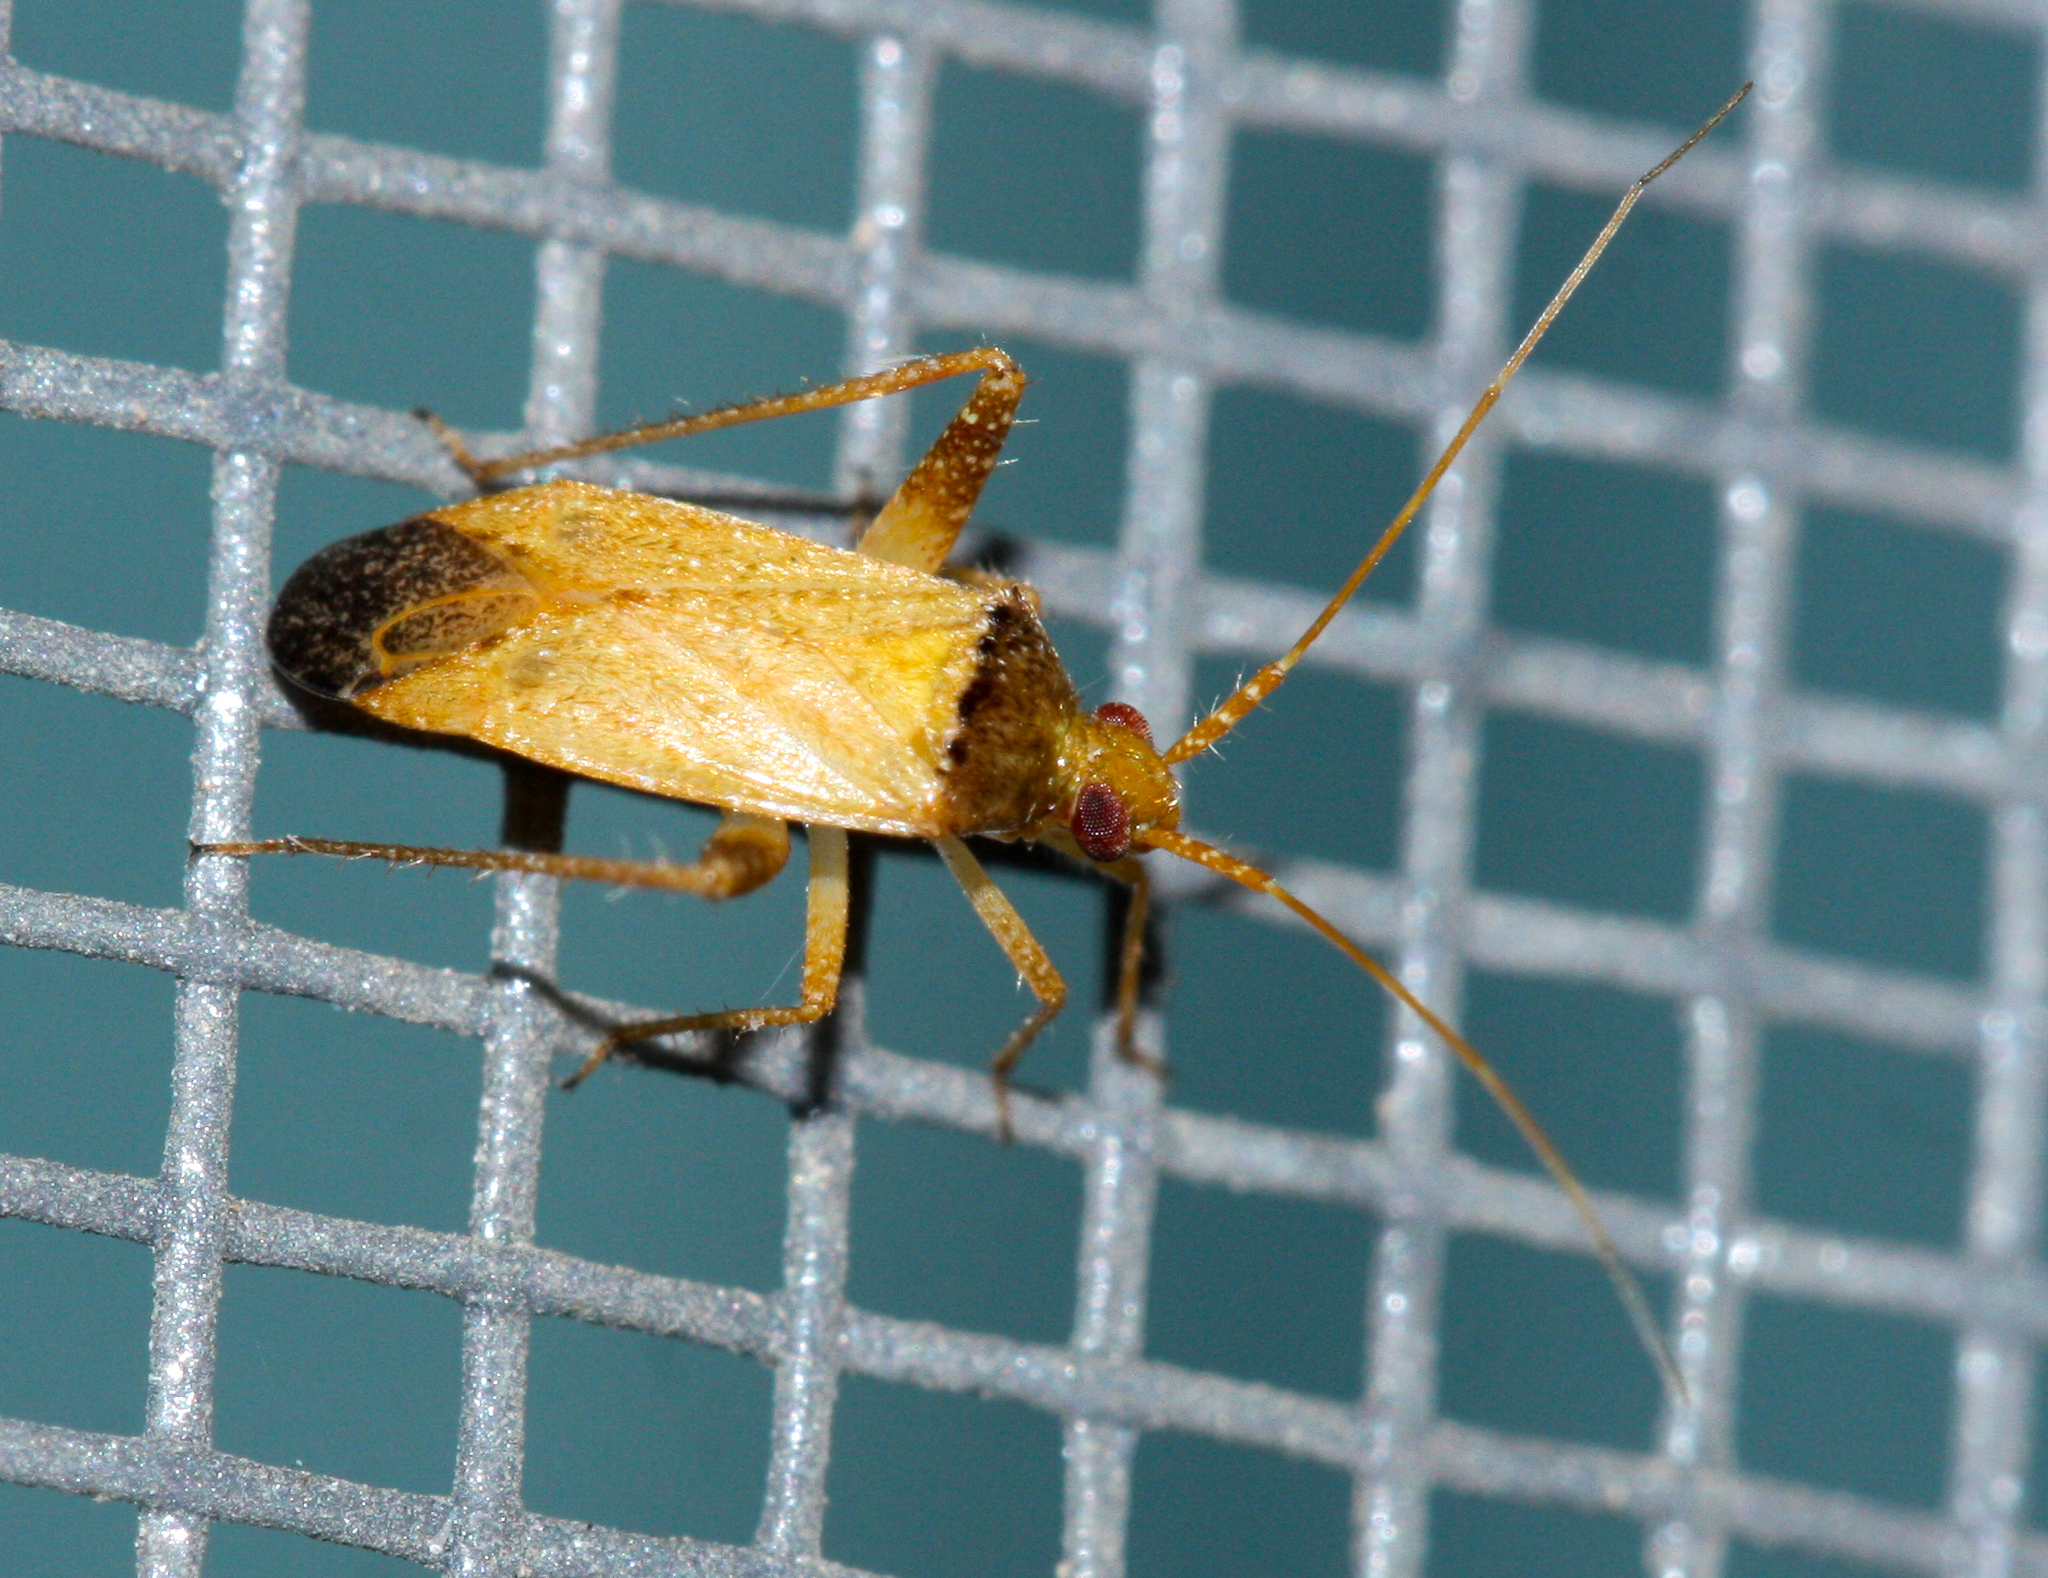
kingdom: Animalia
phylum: Arthropoda
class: Insecta
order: Hemiptera
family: Miridae
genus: Phytocoris
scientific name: Phytocoris ramosus
